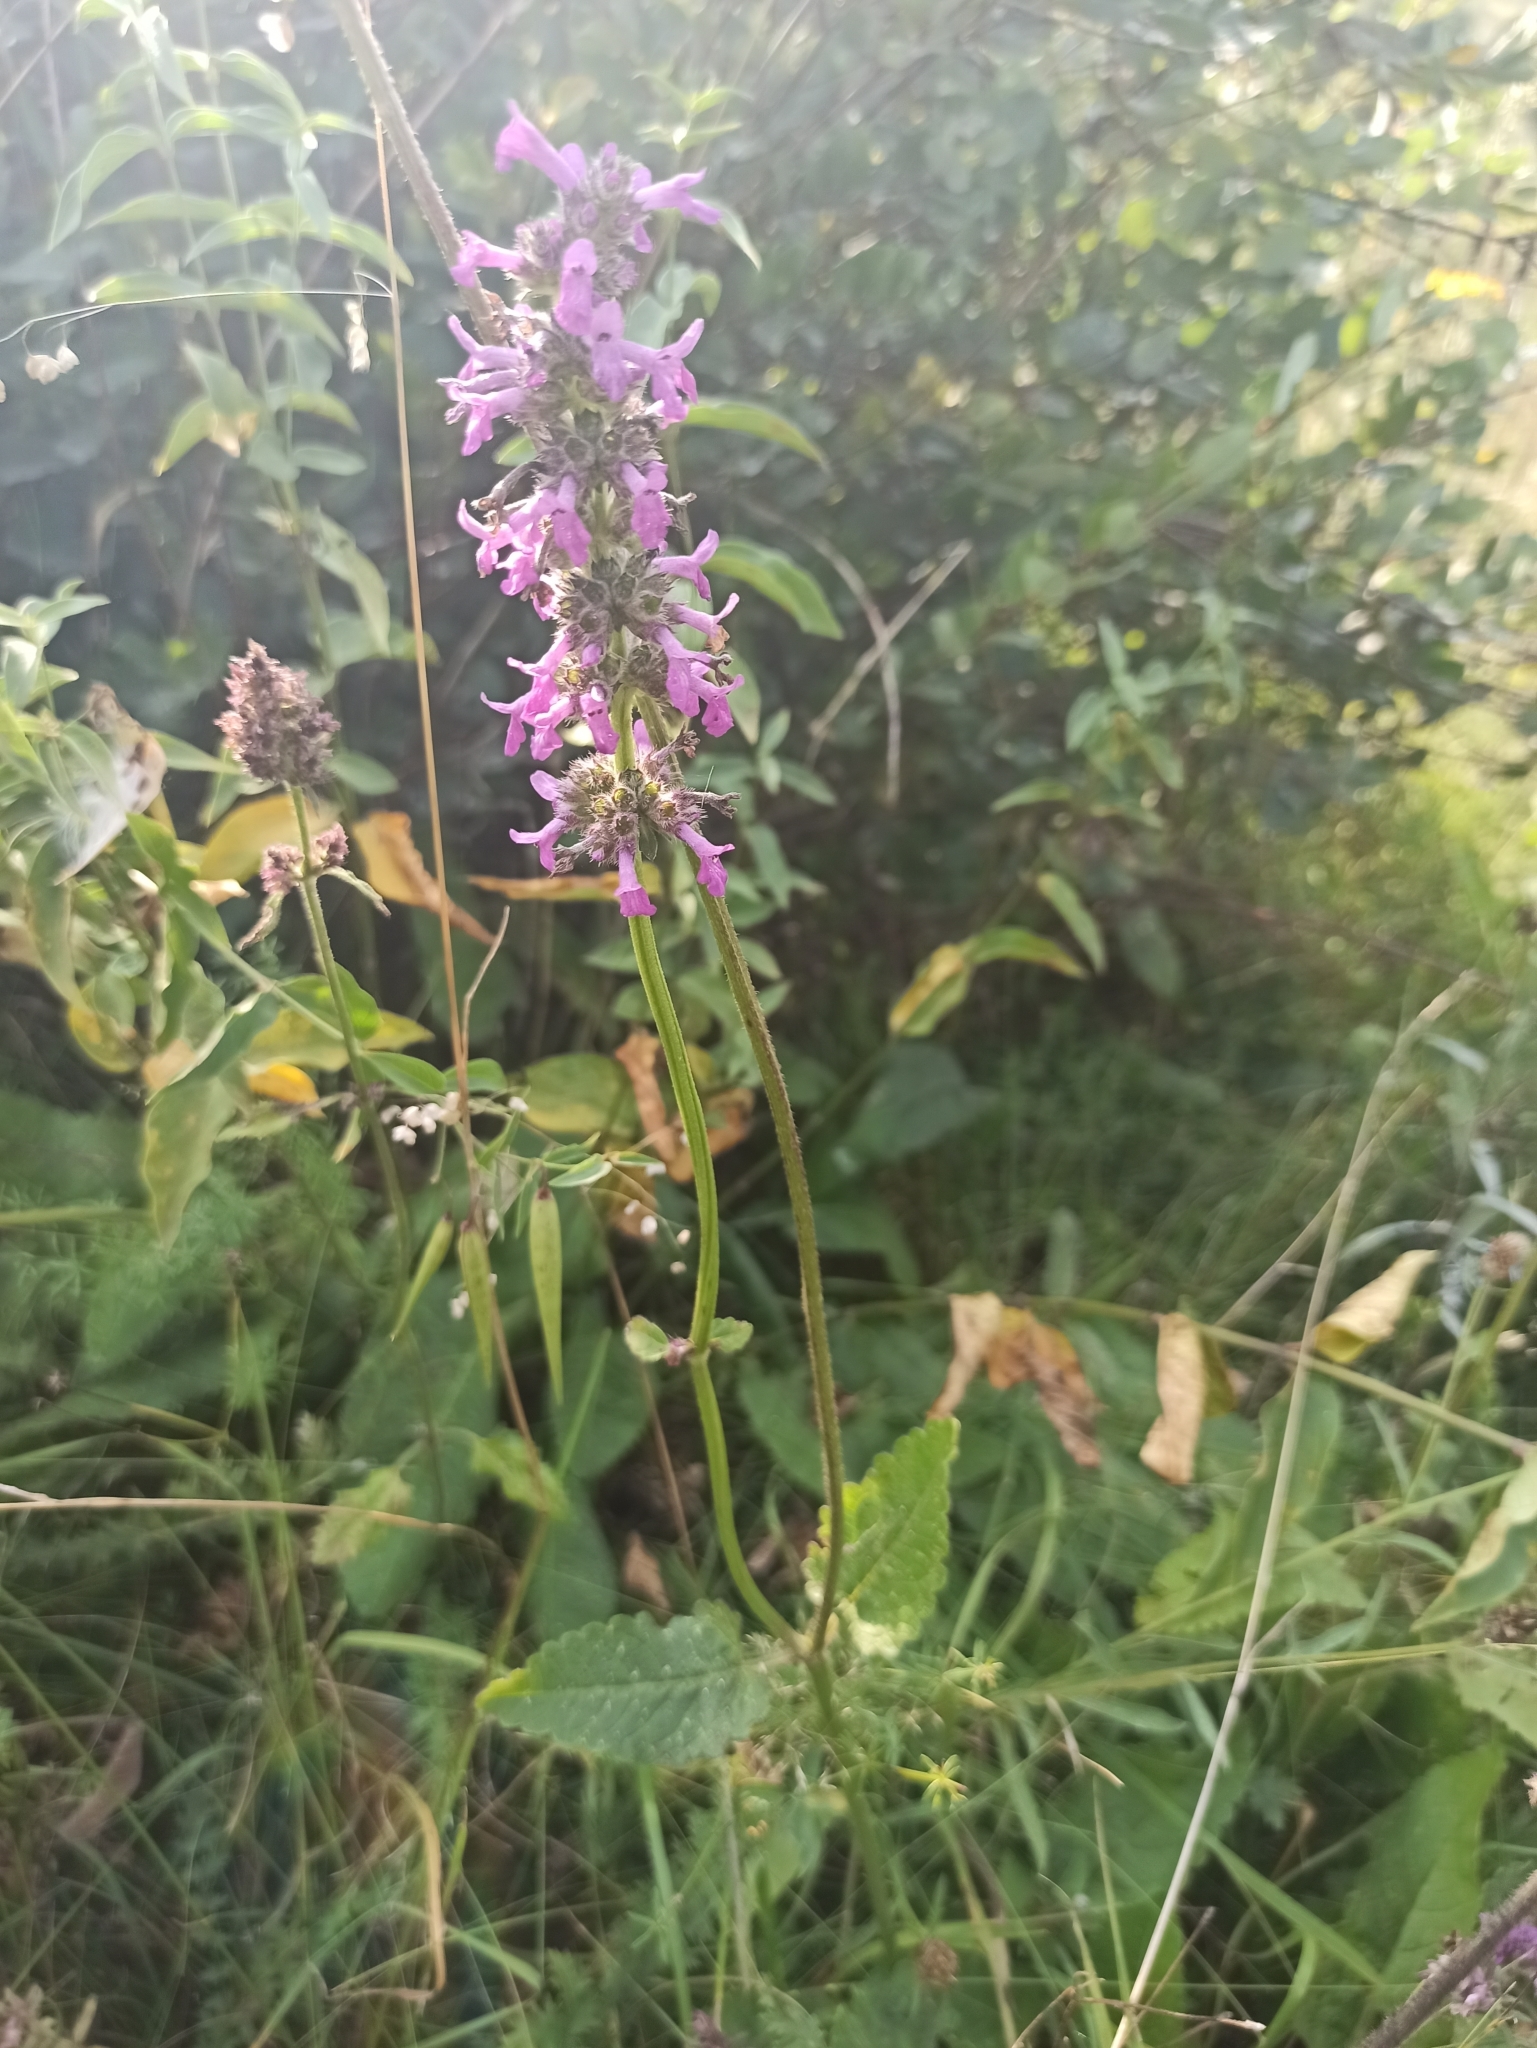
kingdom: Plantae
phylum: Tracheophyta
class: Magnoliopsida
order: Lamiales
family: Lamiaceae
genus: Betonica
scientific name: Betonica officinalis
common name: Bishop's-wort
